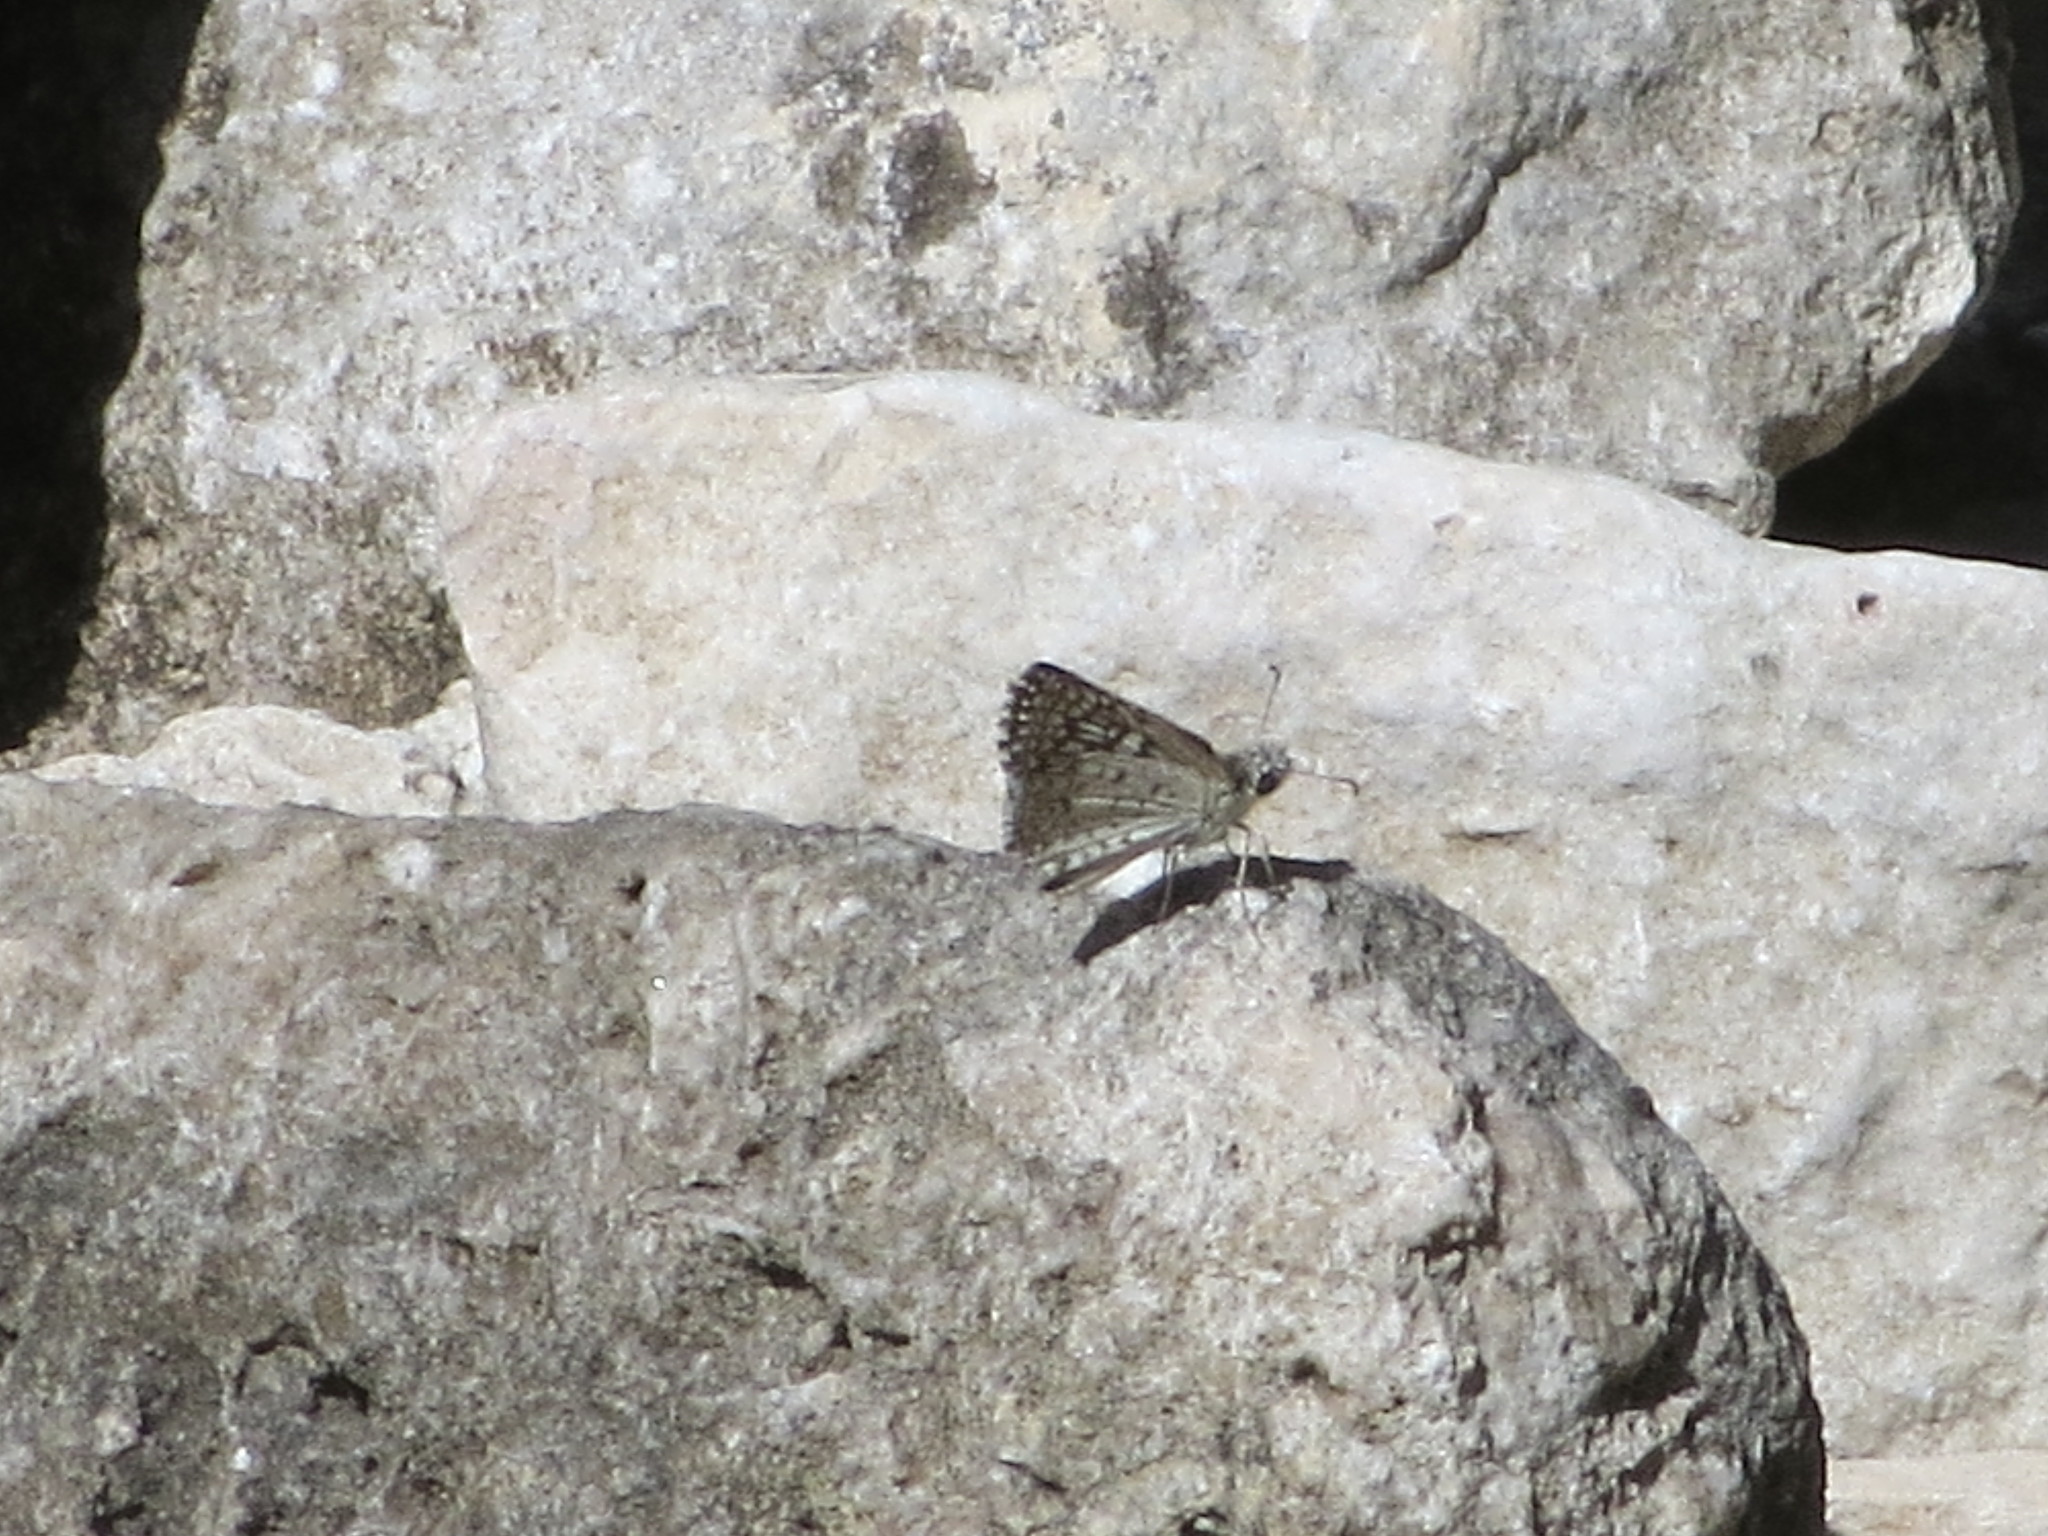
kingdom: Animalia
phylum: Arthropoda
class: Insecta
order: Lepidoptera
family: Hesperiidae
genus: Burnsius
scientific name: Burnsius philetas
